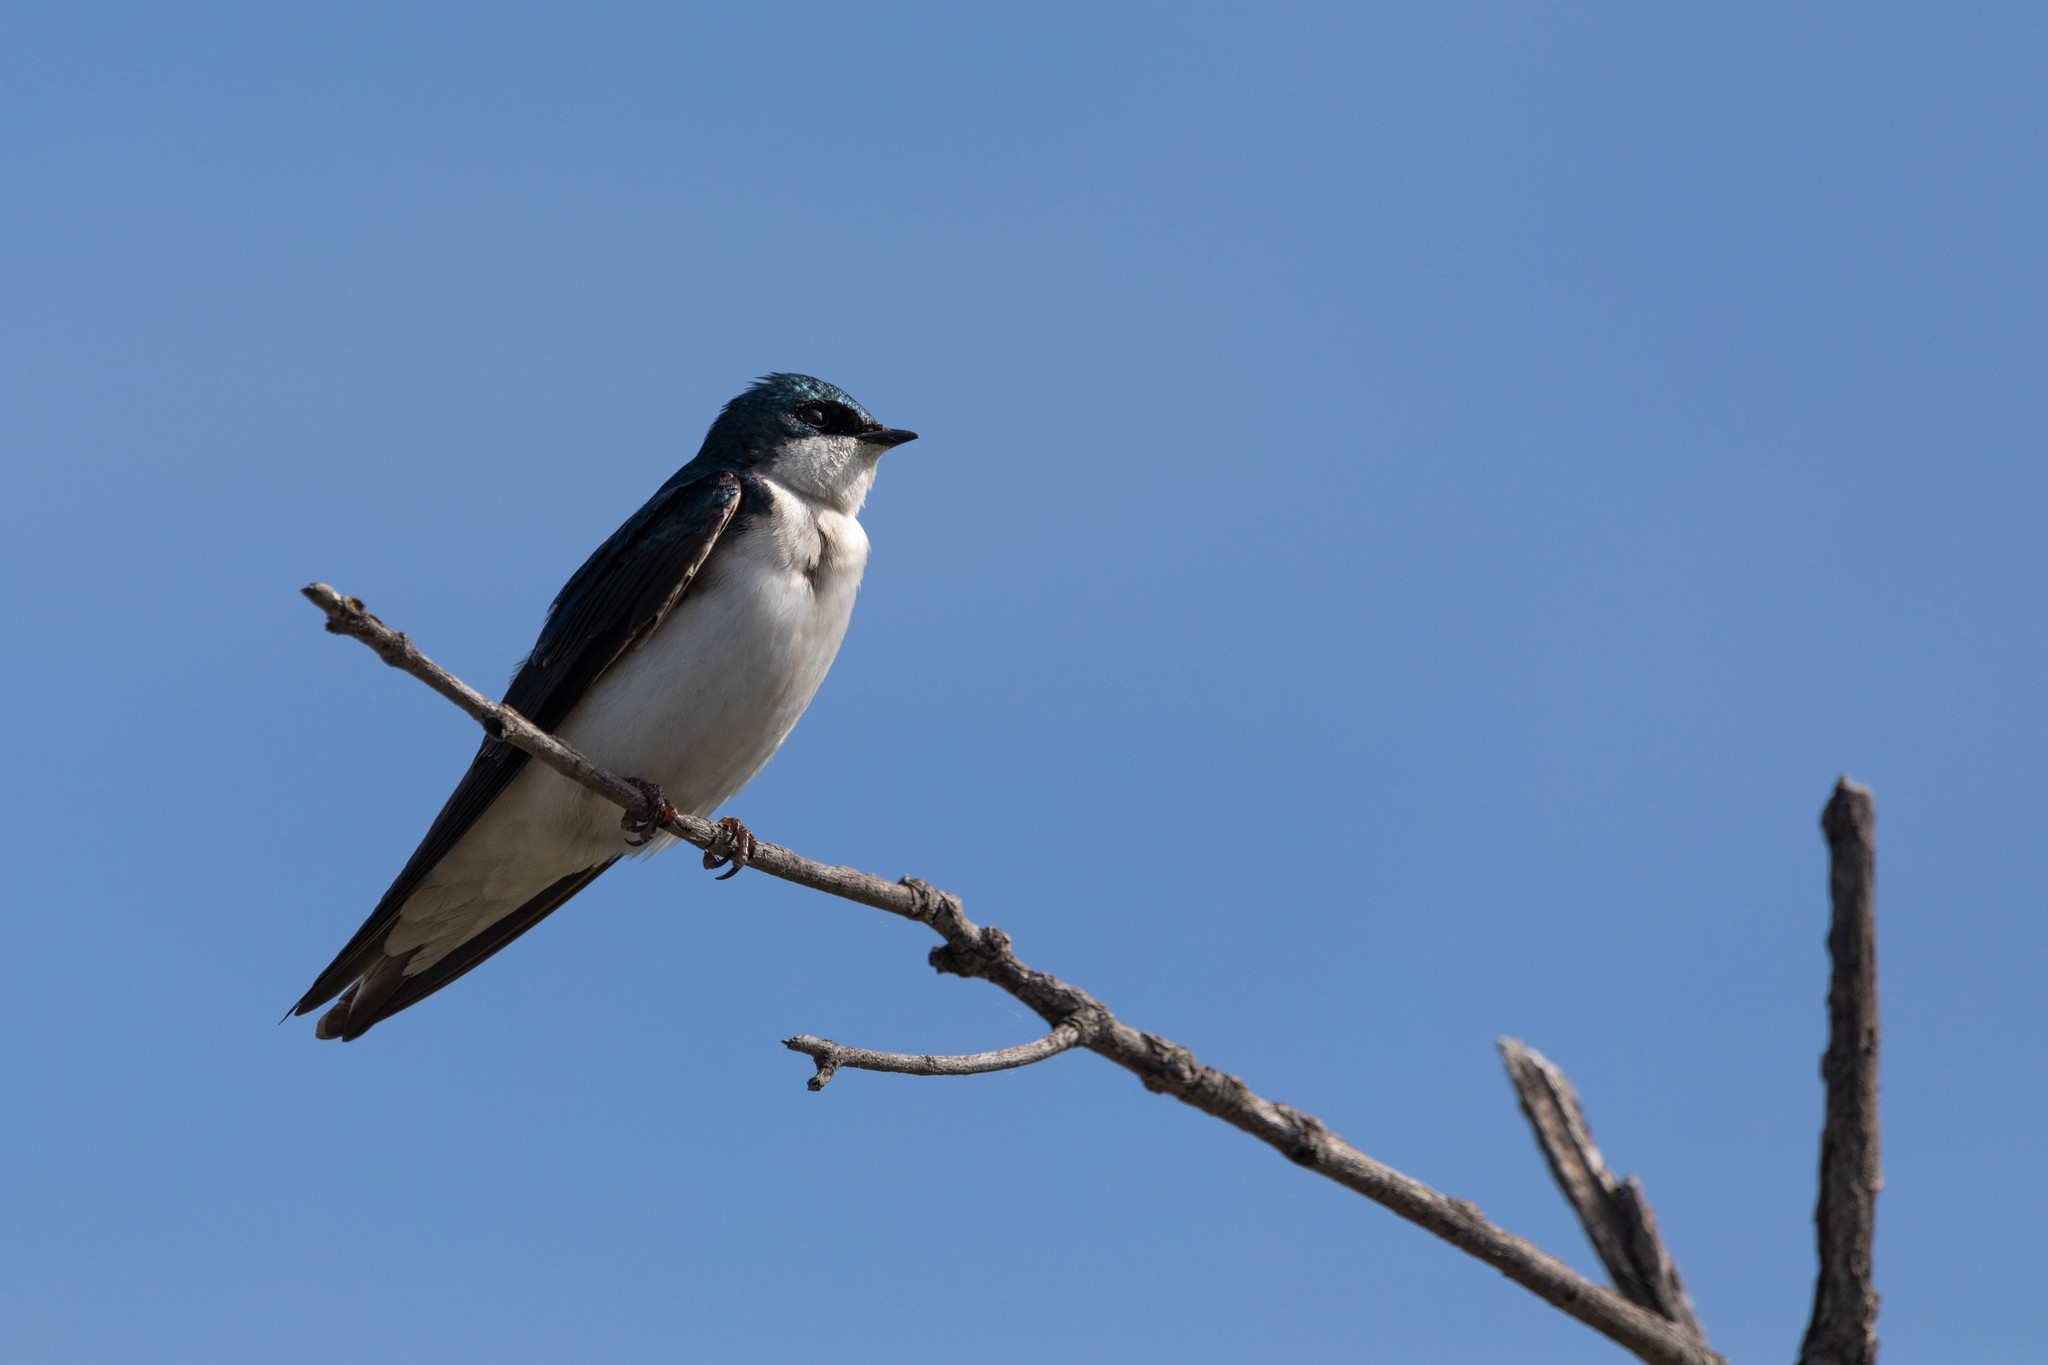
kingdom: Animalia
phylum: Chordata
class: Aves
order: Passeriformes
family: Hirundinidae
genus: Tachycineta
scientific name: Tachycineta bicolor
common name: Tree swallow
